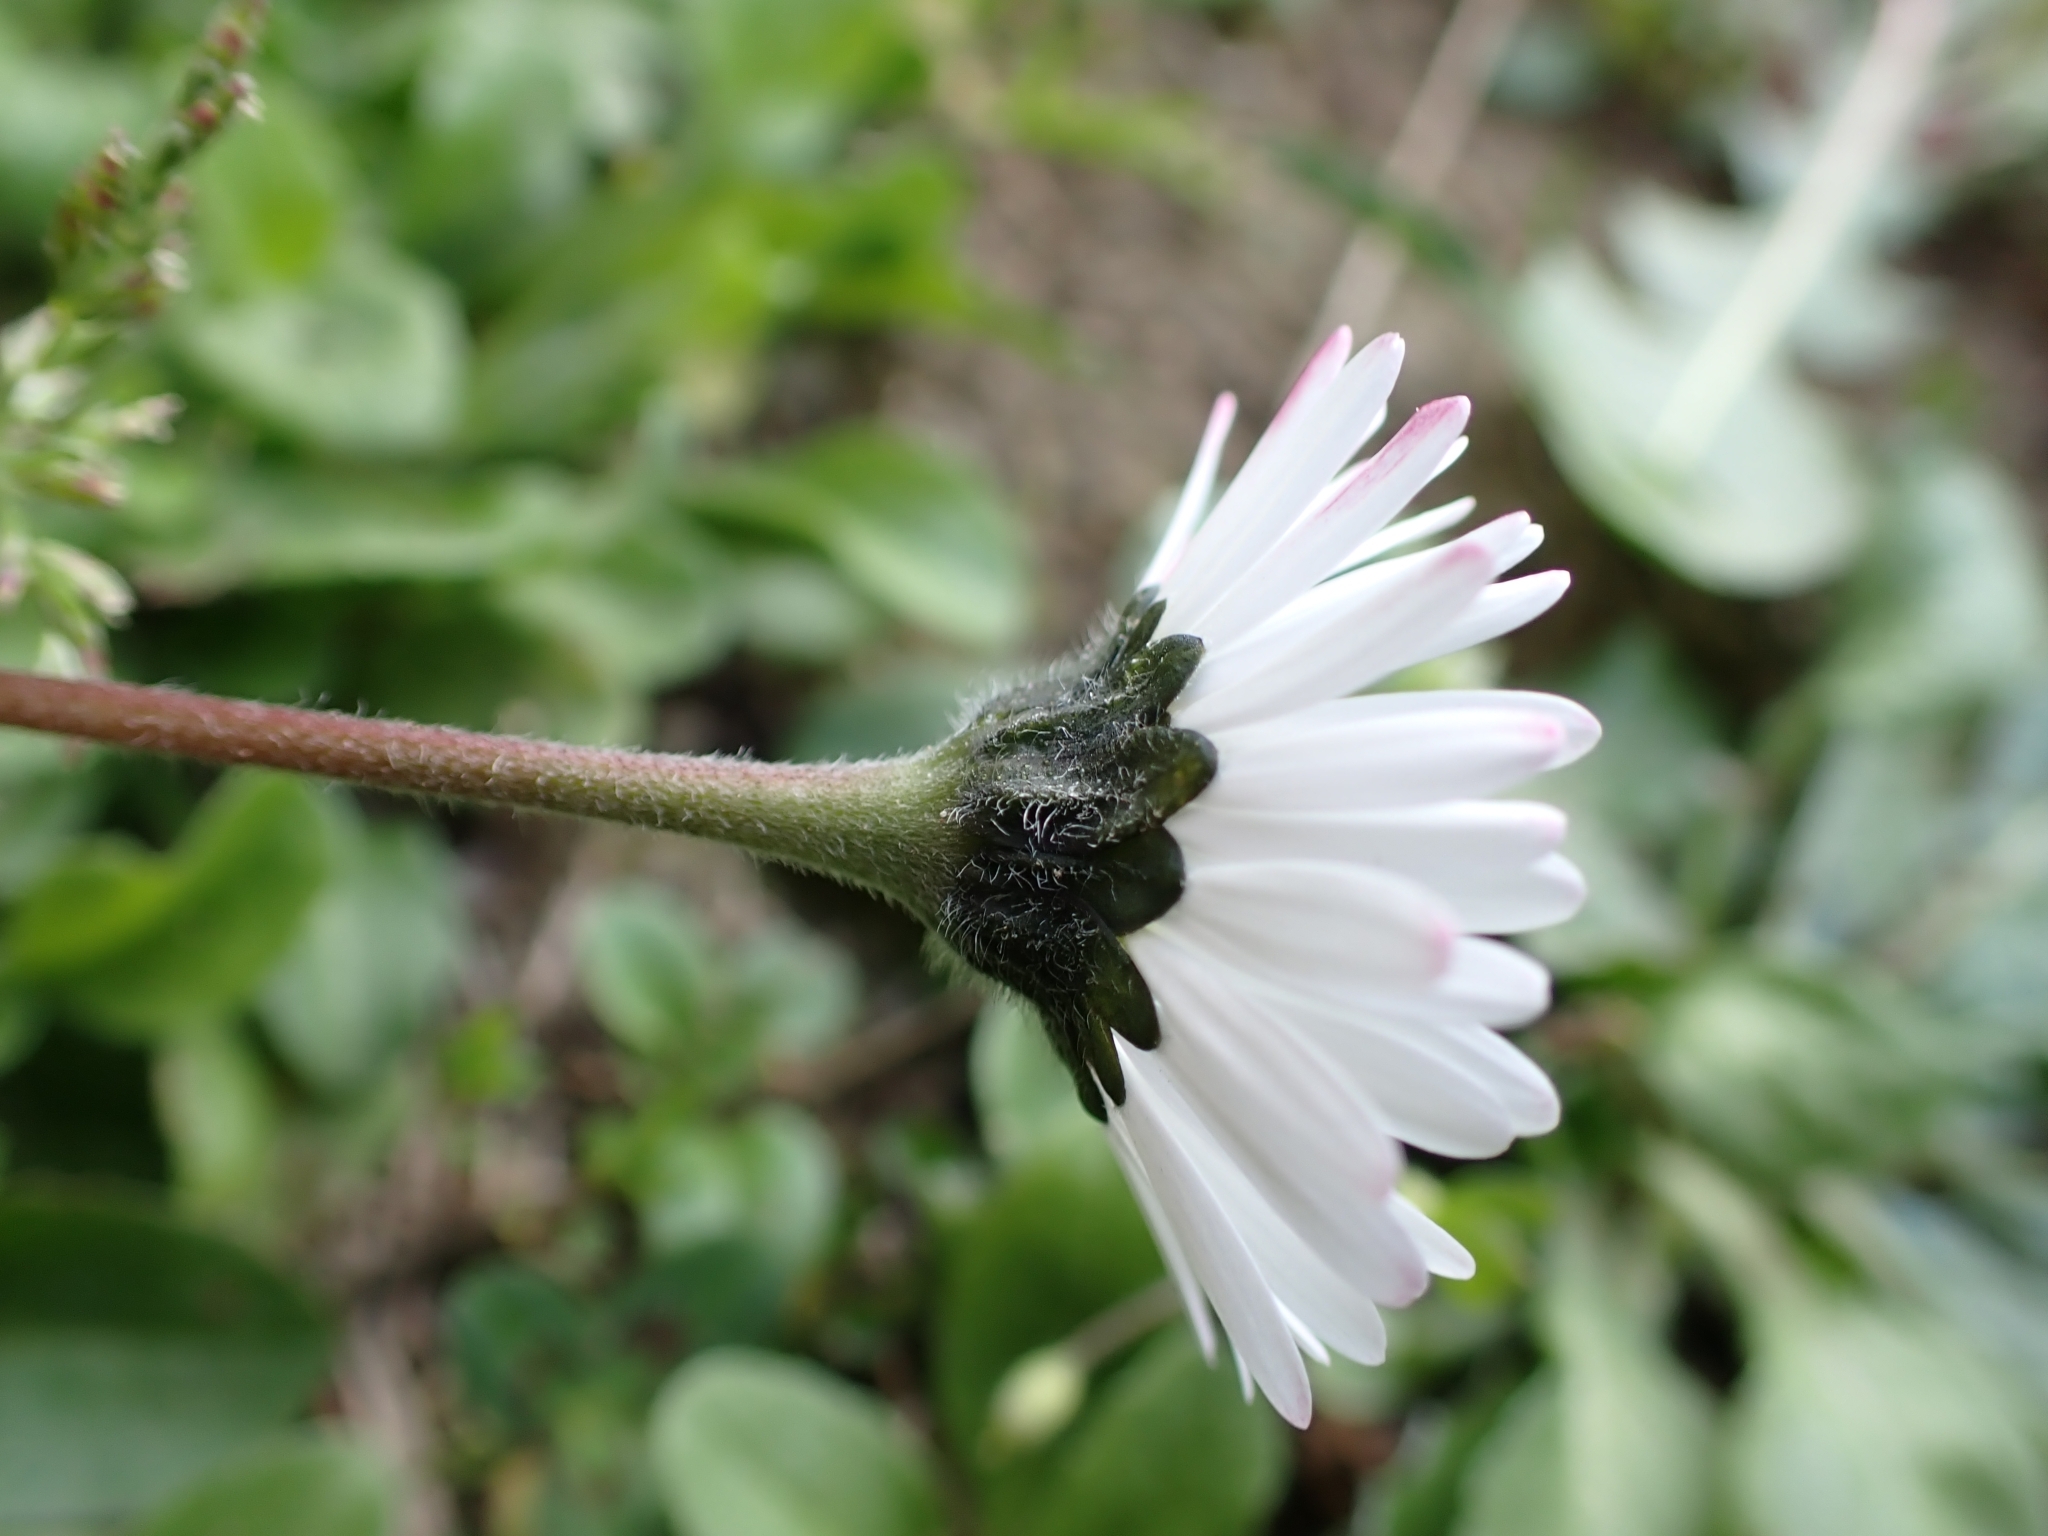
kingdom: Plantae
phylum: Tracheophyta
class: Magnoliopsida
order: Asterales
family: Asteraceae
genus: Bellis
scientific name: Bellis perennis
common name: Lawndaisy
